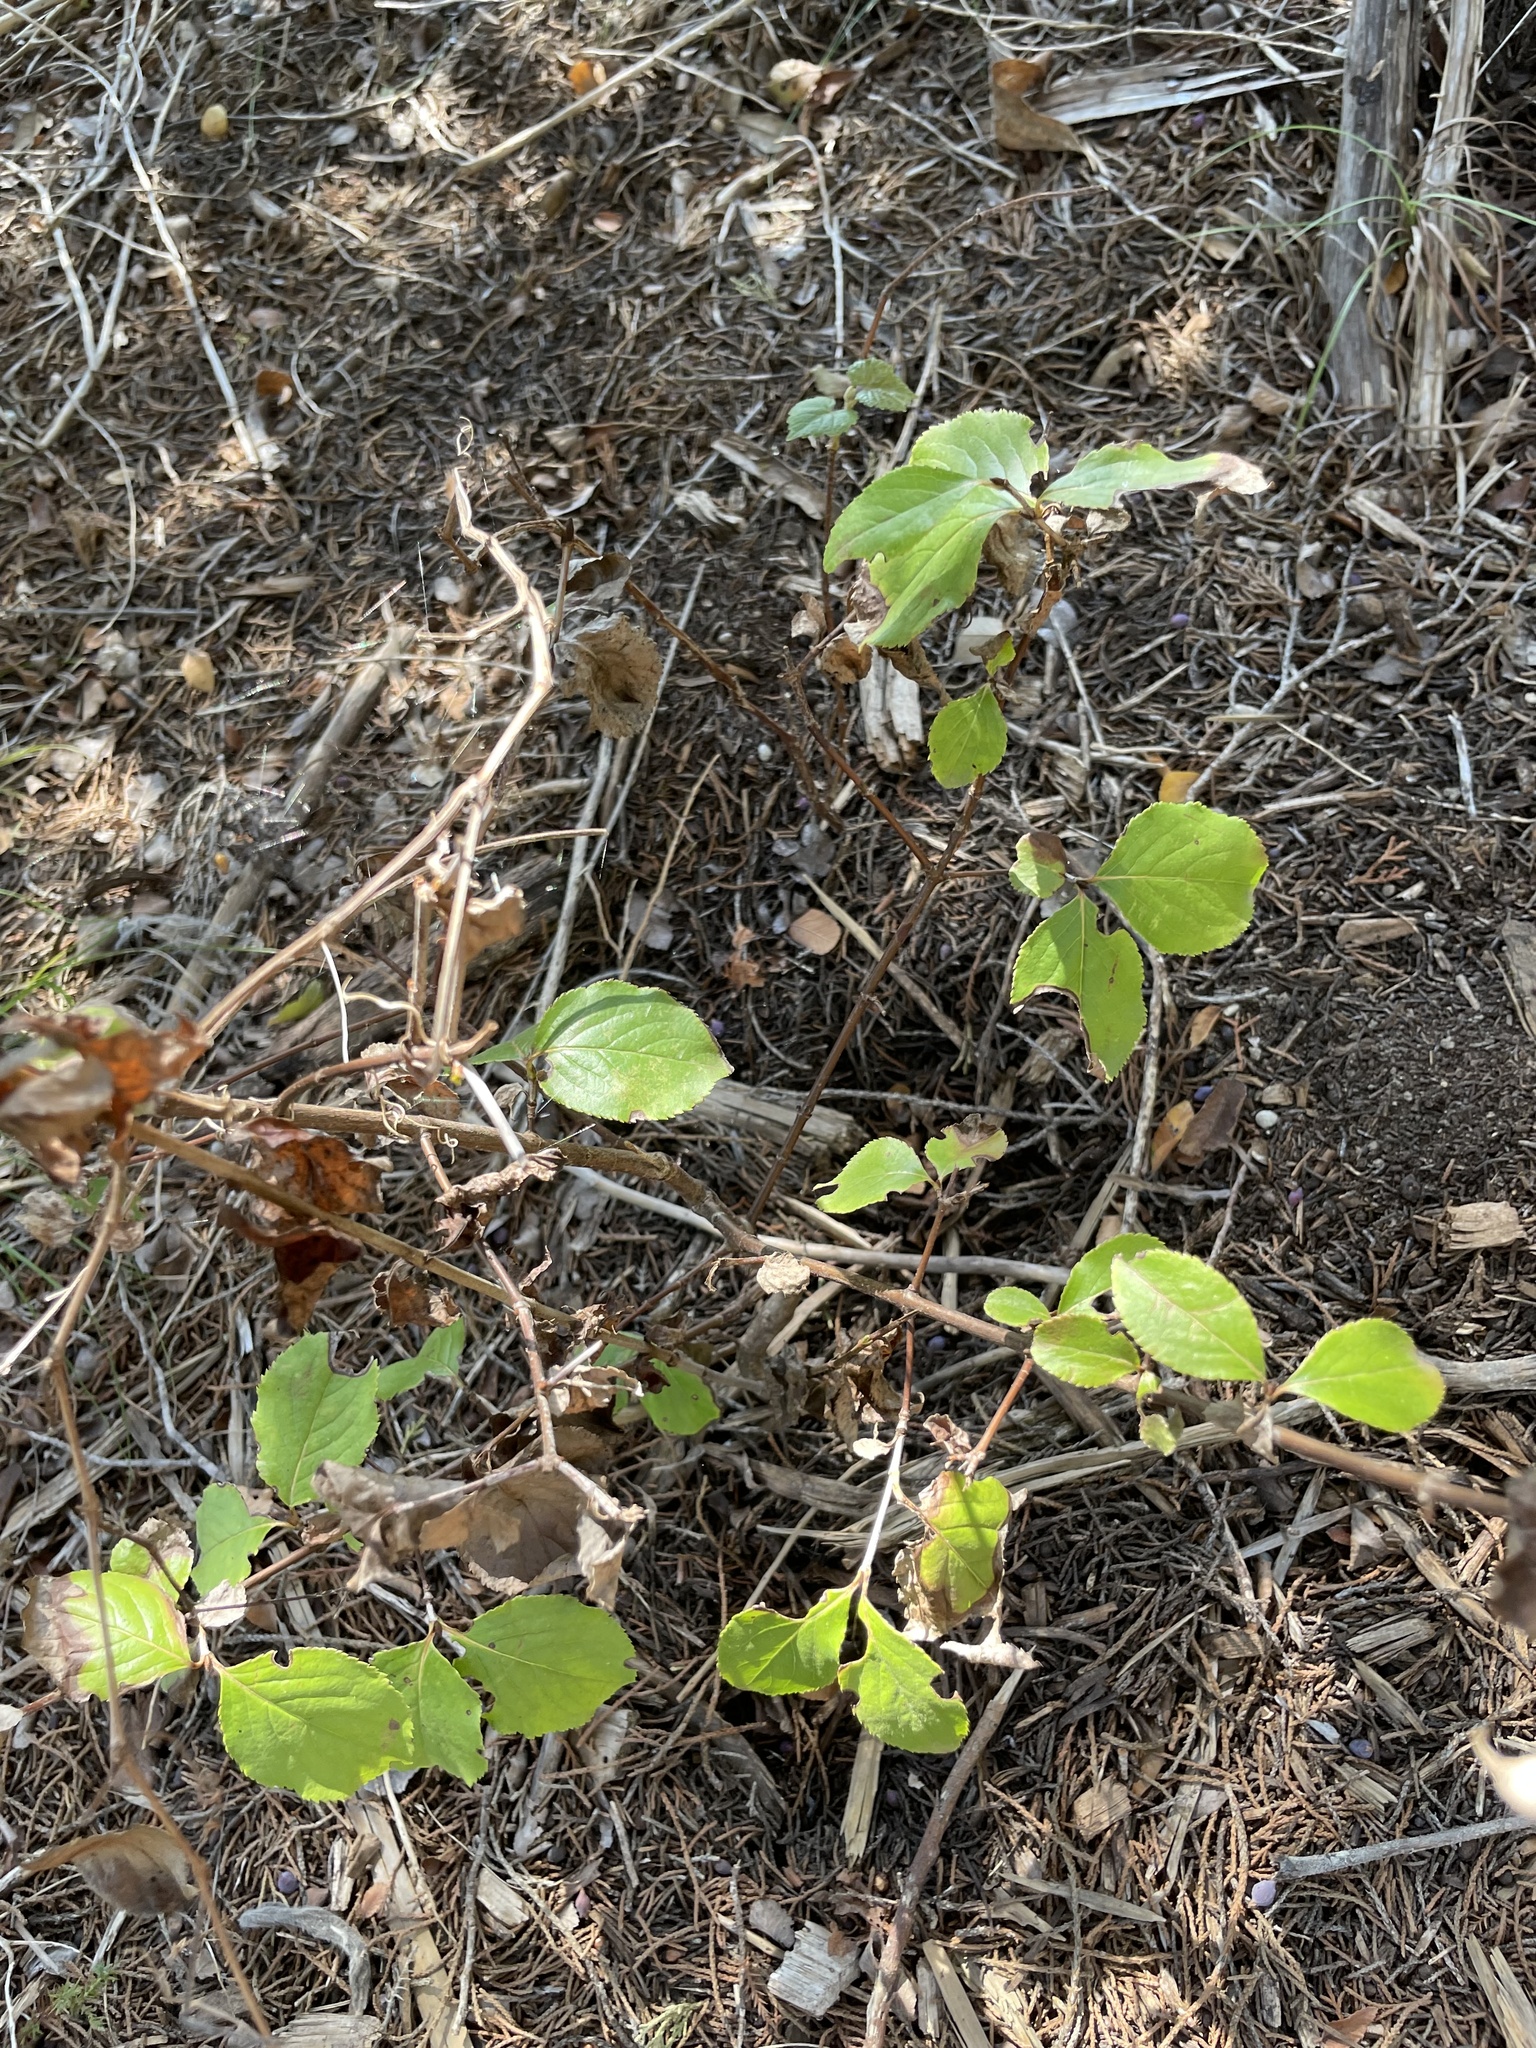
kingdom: Plantae
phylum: Tracheophyta
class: Magnoliopsida
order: Dipsacales
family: Viburnaceae
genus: Viburnum
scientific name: Viburnum rufidulum
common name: Blue haw
